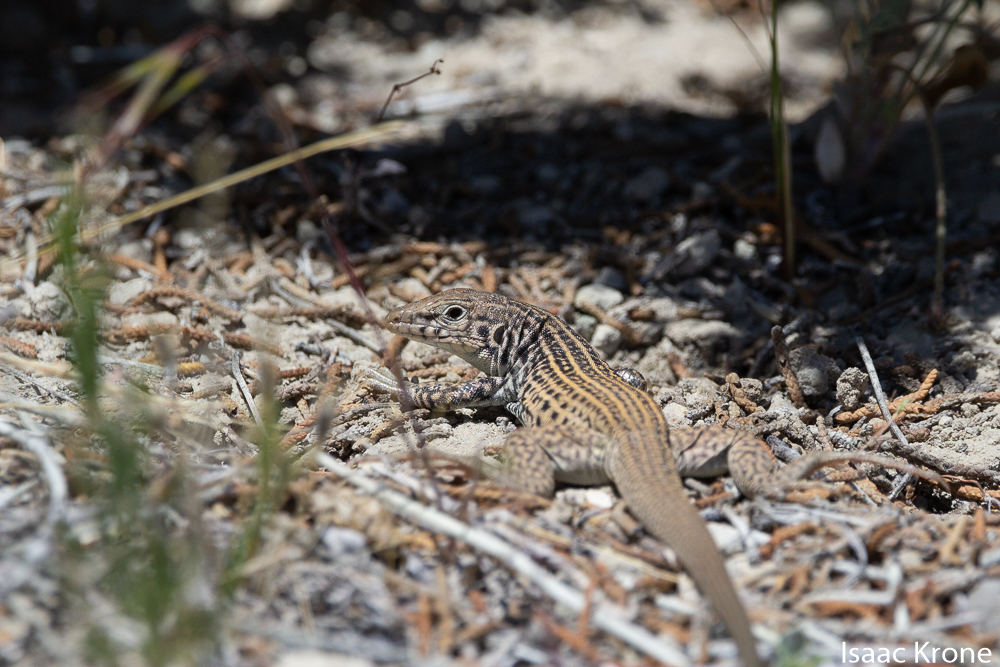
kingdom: Animalia
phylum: Chordata
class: Squamata
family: Teiidae
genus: Aspidoscelis
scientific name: Aspidoscelis tigris
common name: Tiger whiptail
